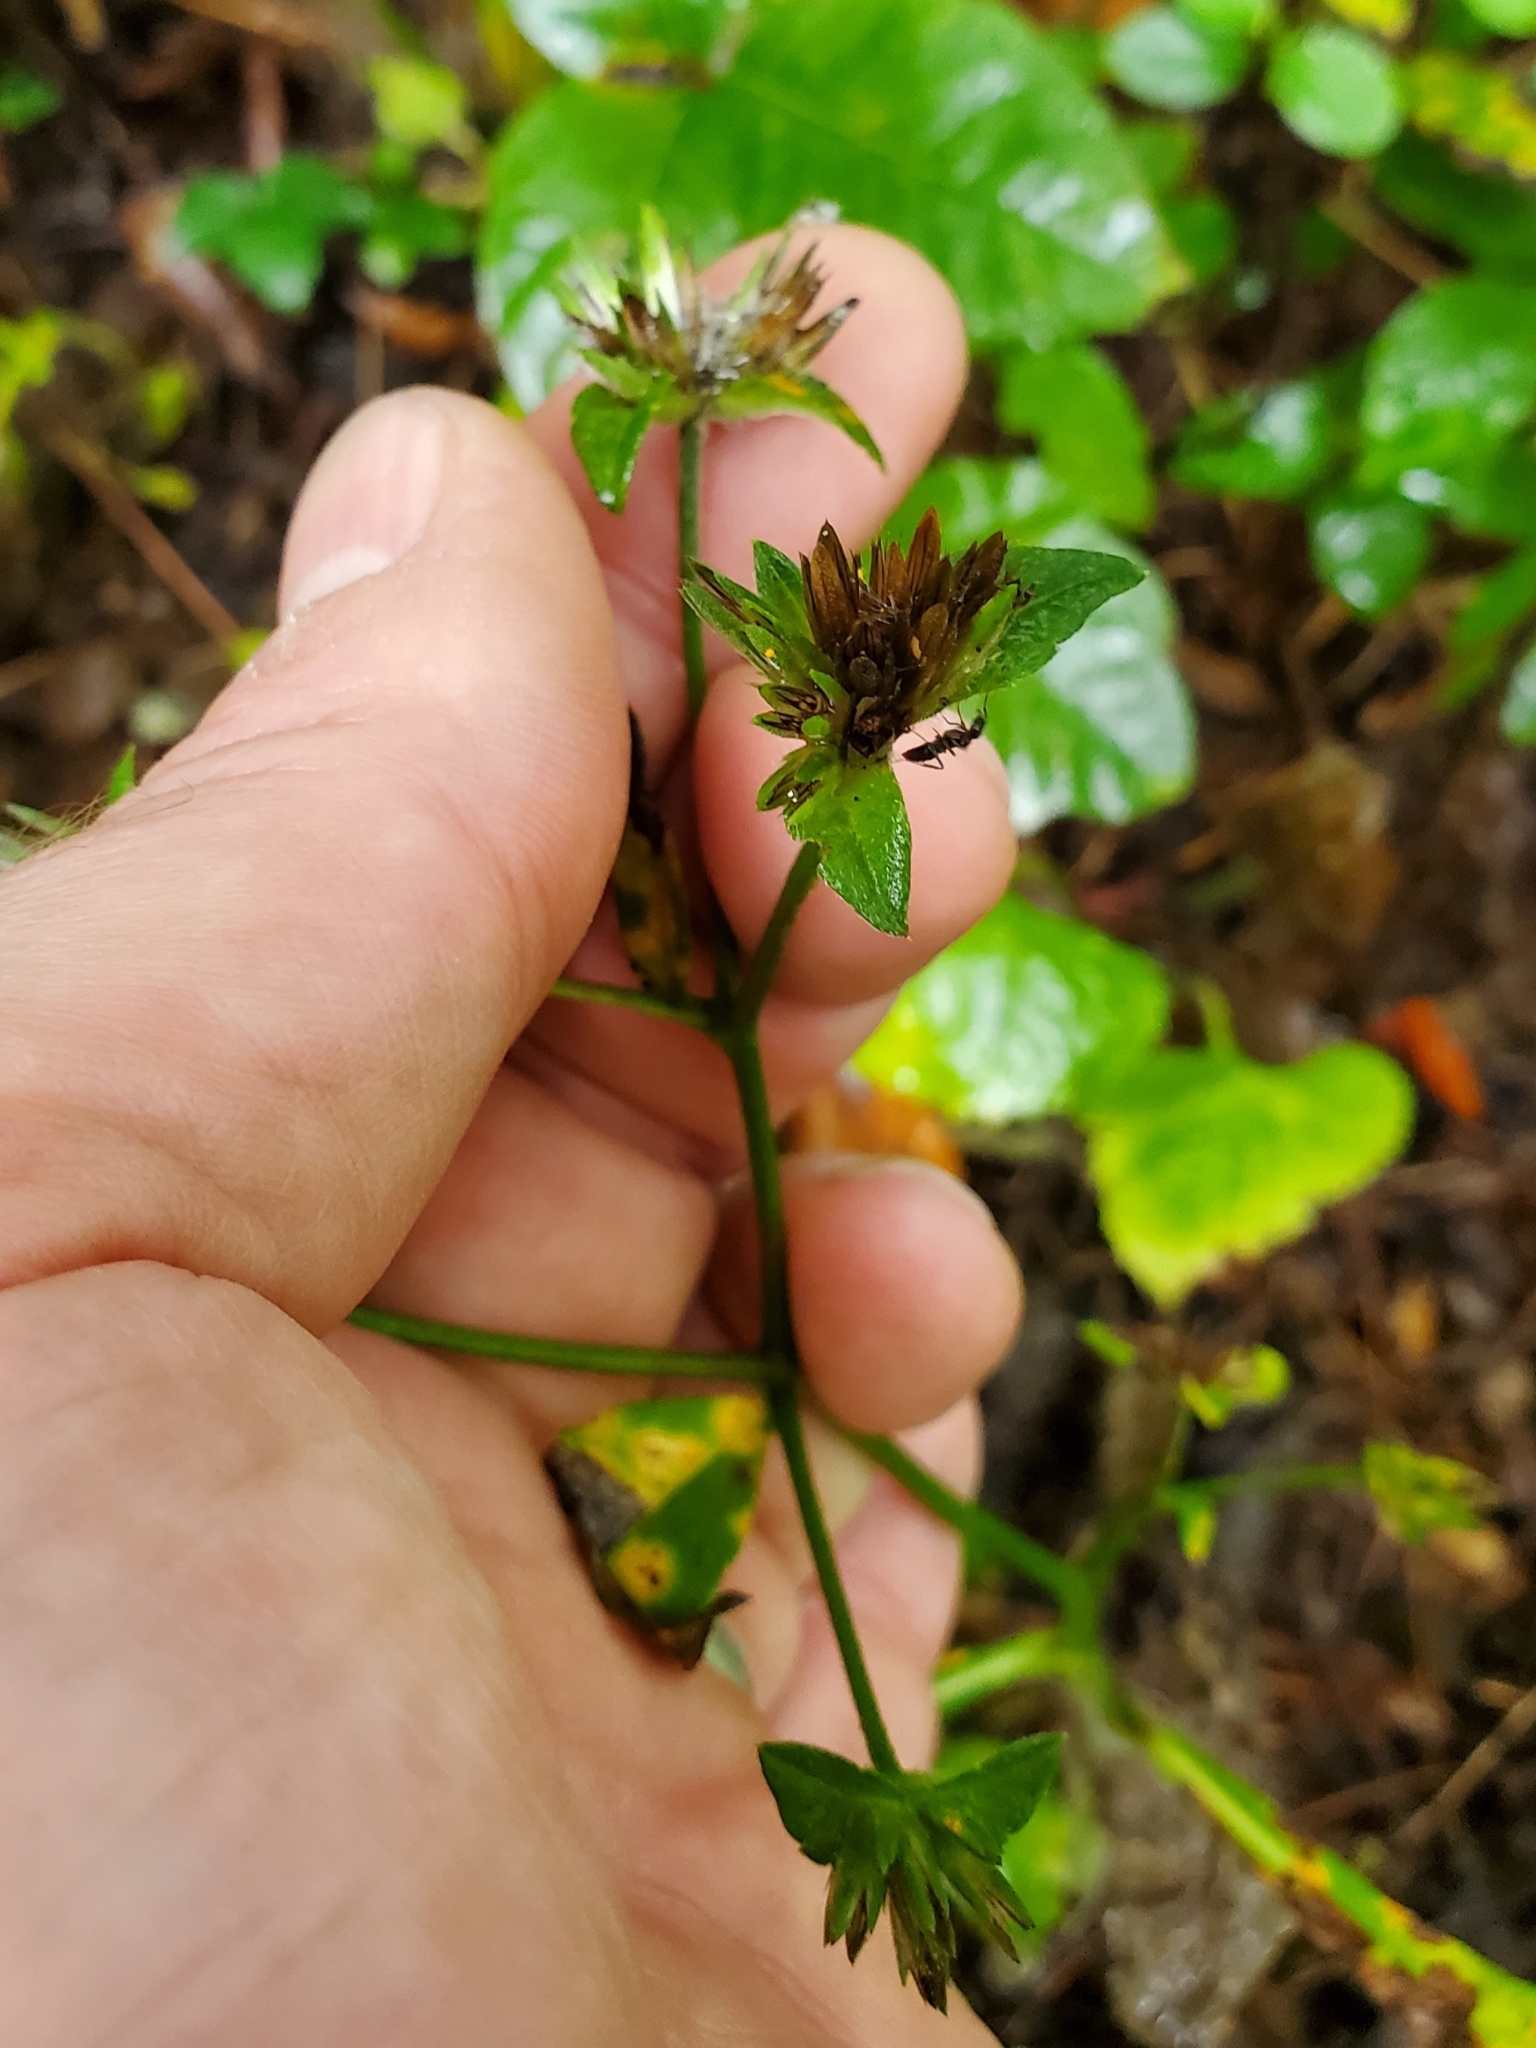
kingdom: Plantae
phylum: Tracheophyta
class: Magnoliopsida
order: Asterales
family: Asteraceae
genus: Elephantopus
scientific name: Elephantopus carolinianus
